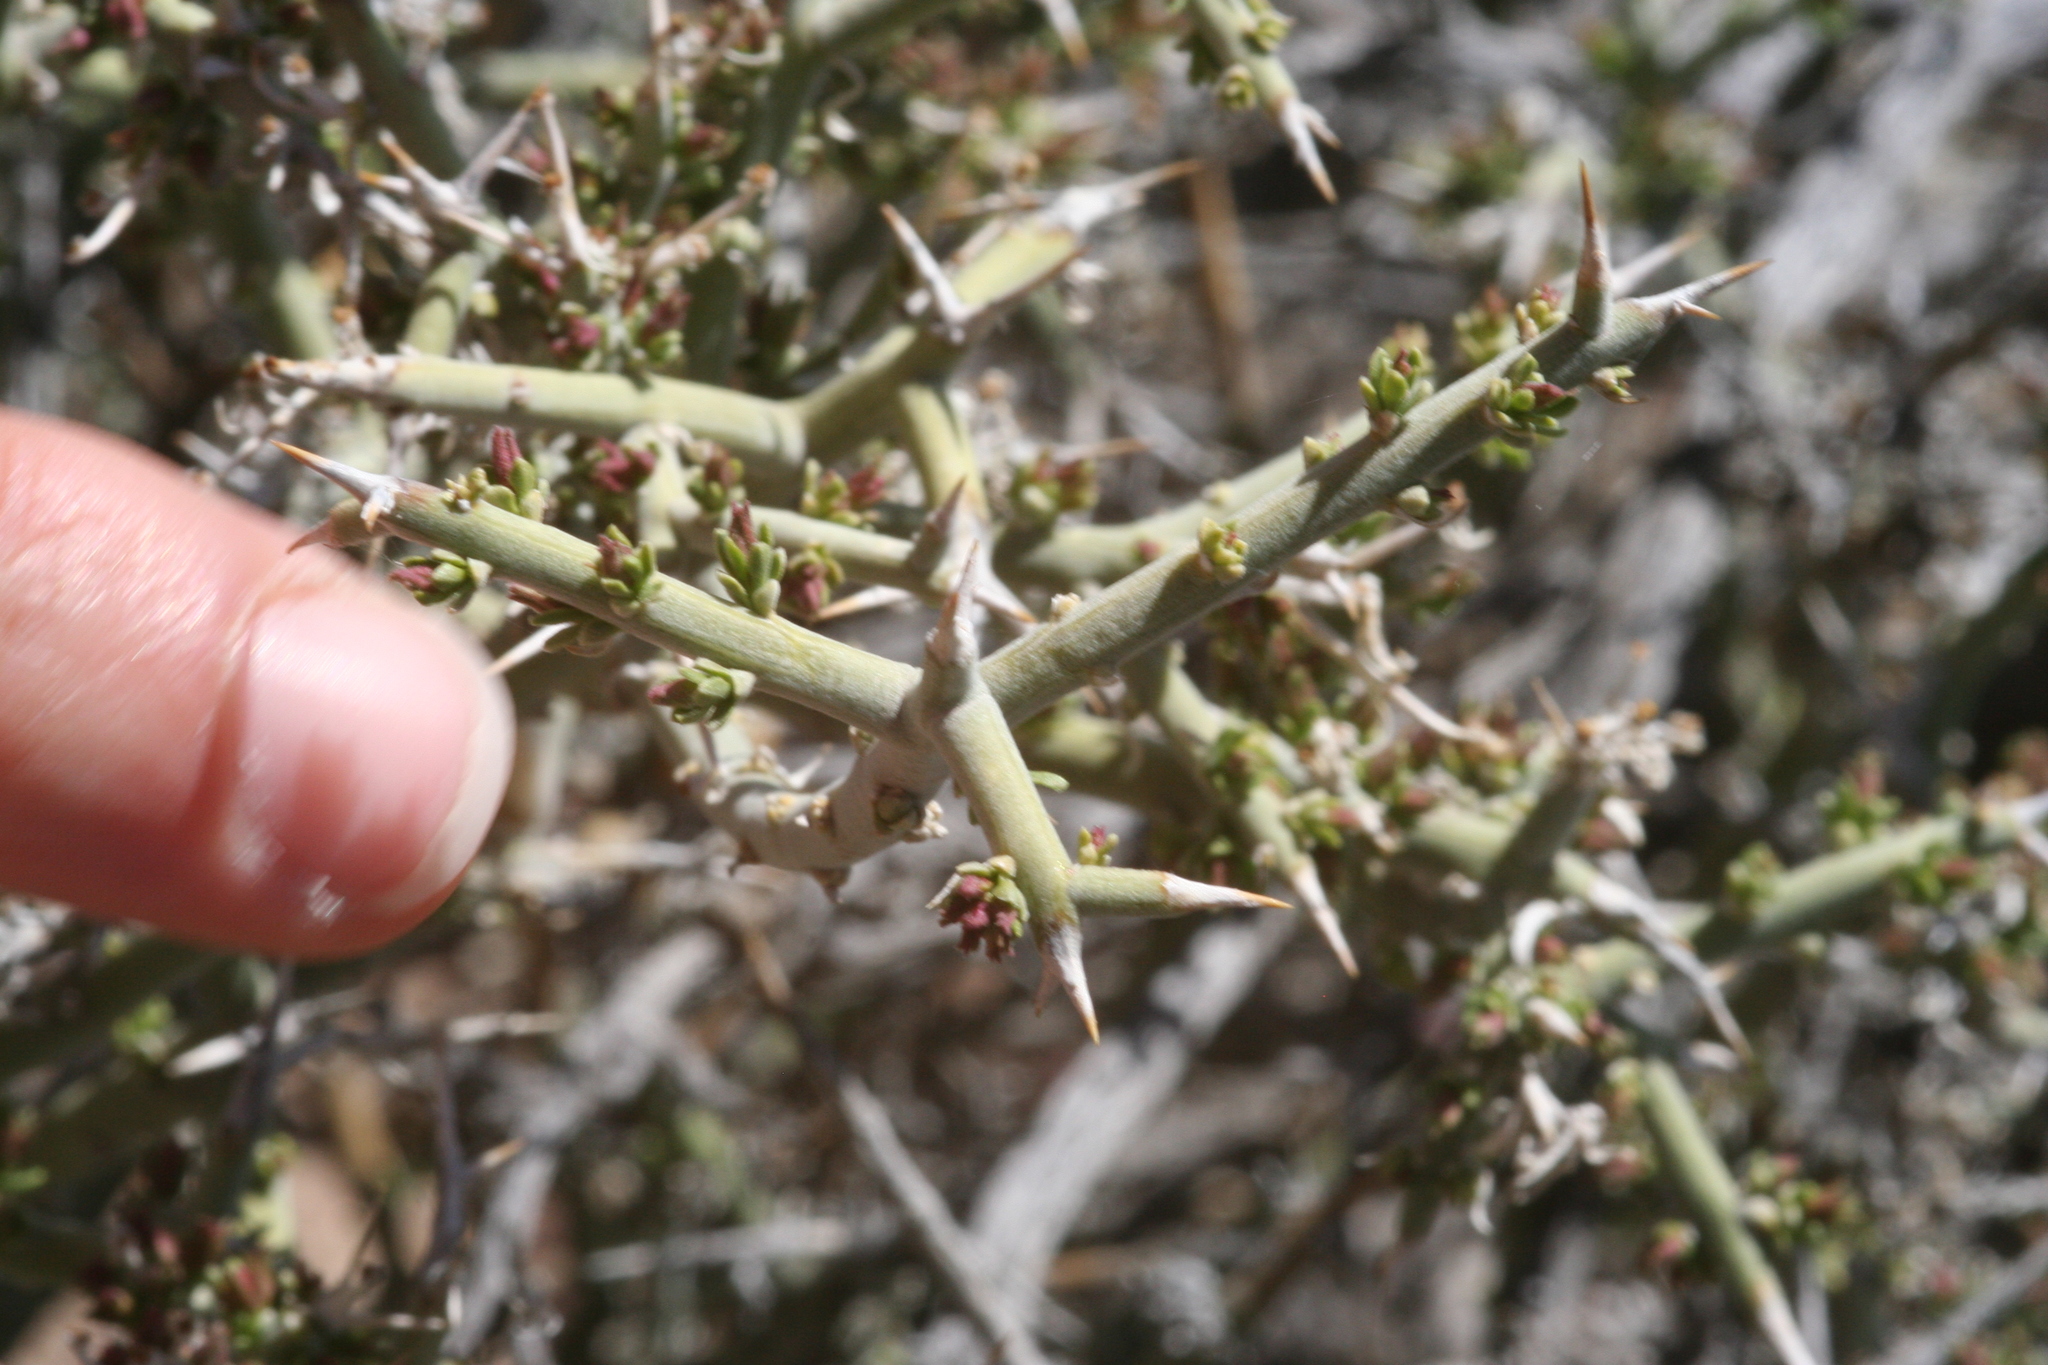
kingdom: Plantae
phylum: Tracheophyta
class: Magnoliopsida
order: Lamiales
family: Oleaceae
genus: Menodora
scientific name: Menodora spinescens
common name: Spiny menodora
